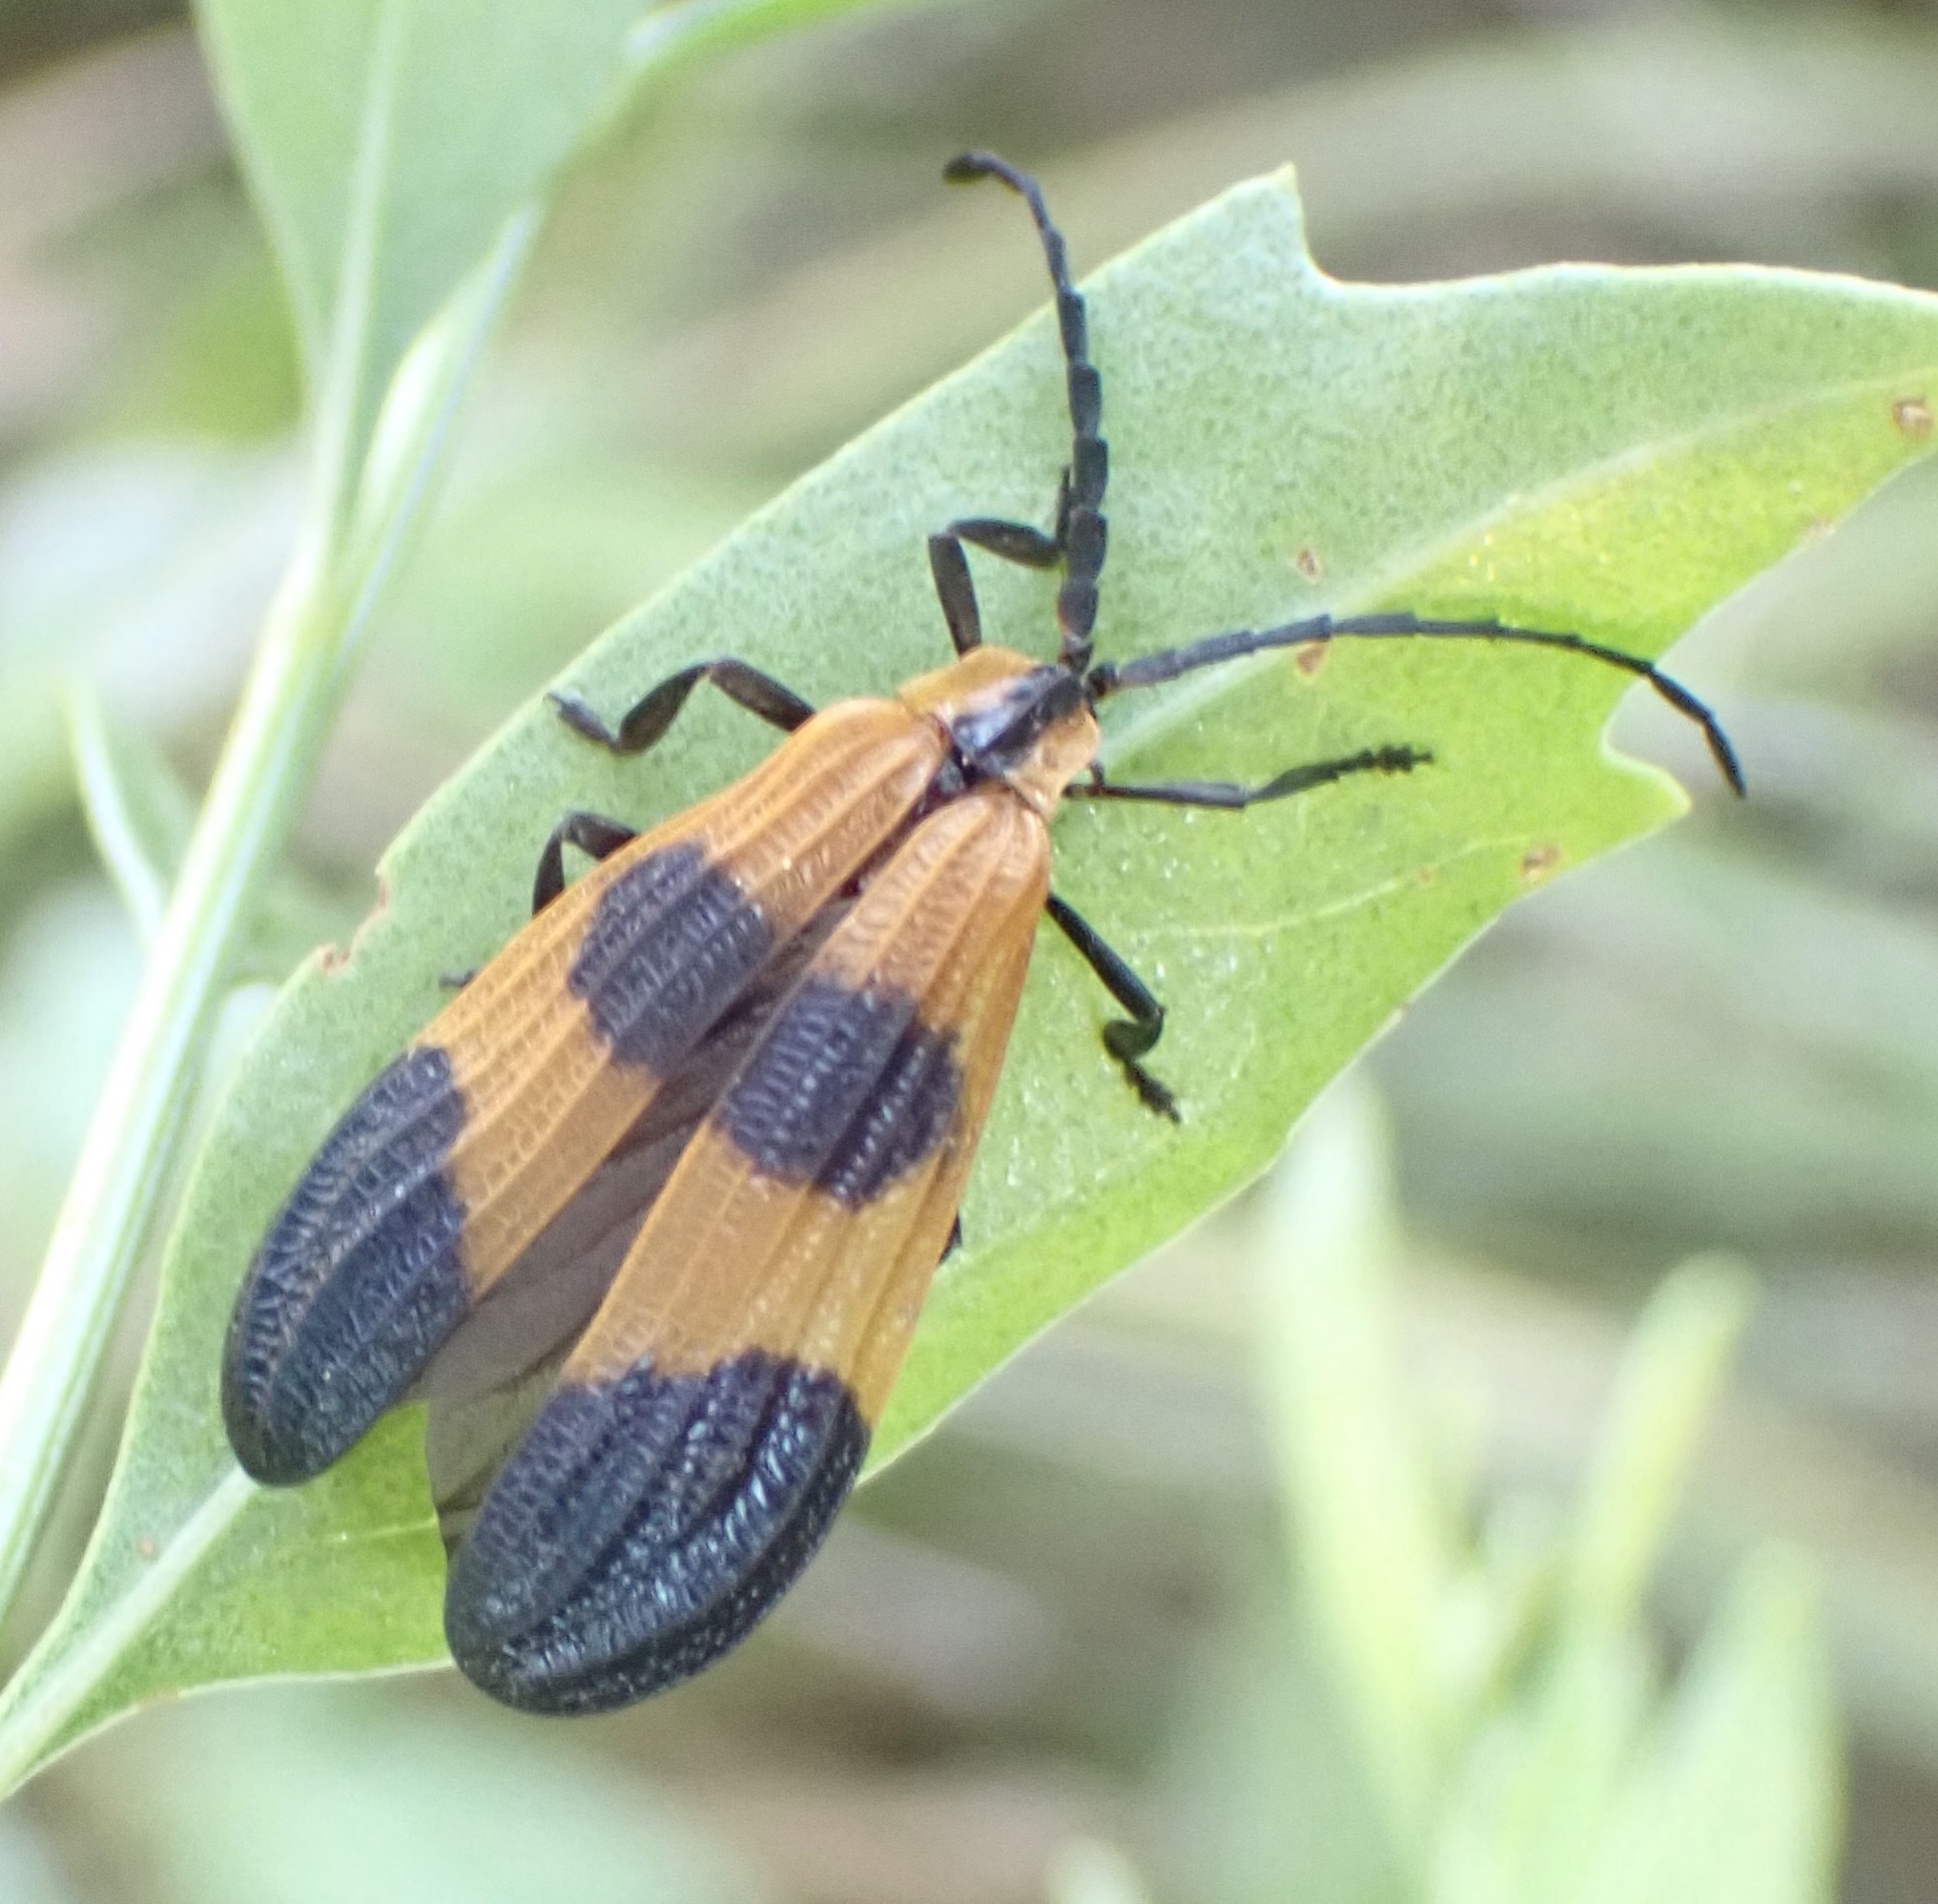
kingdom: Animalia
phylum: Arthropoda
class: Insecta
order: Coleoptera
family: Lycidae
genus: Calopteron
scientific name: Calopteron terminale
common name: End band net-winged beetle
